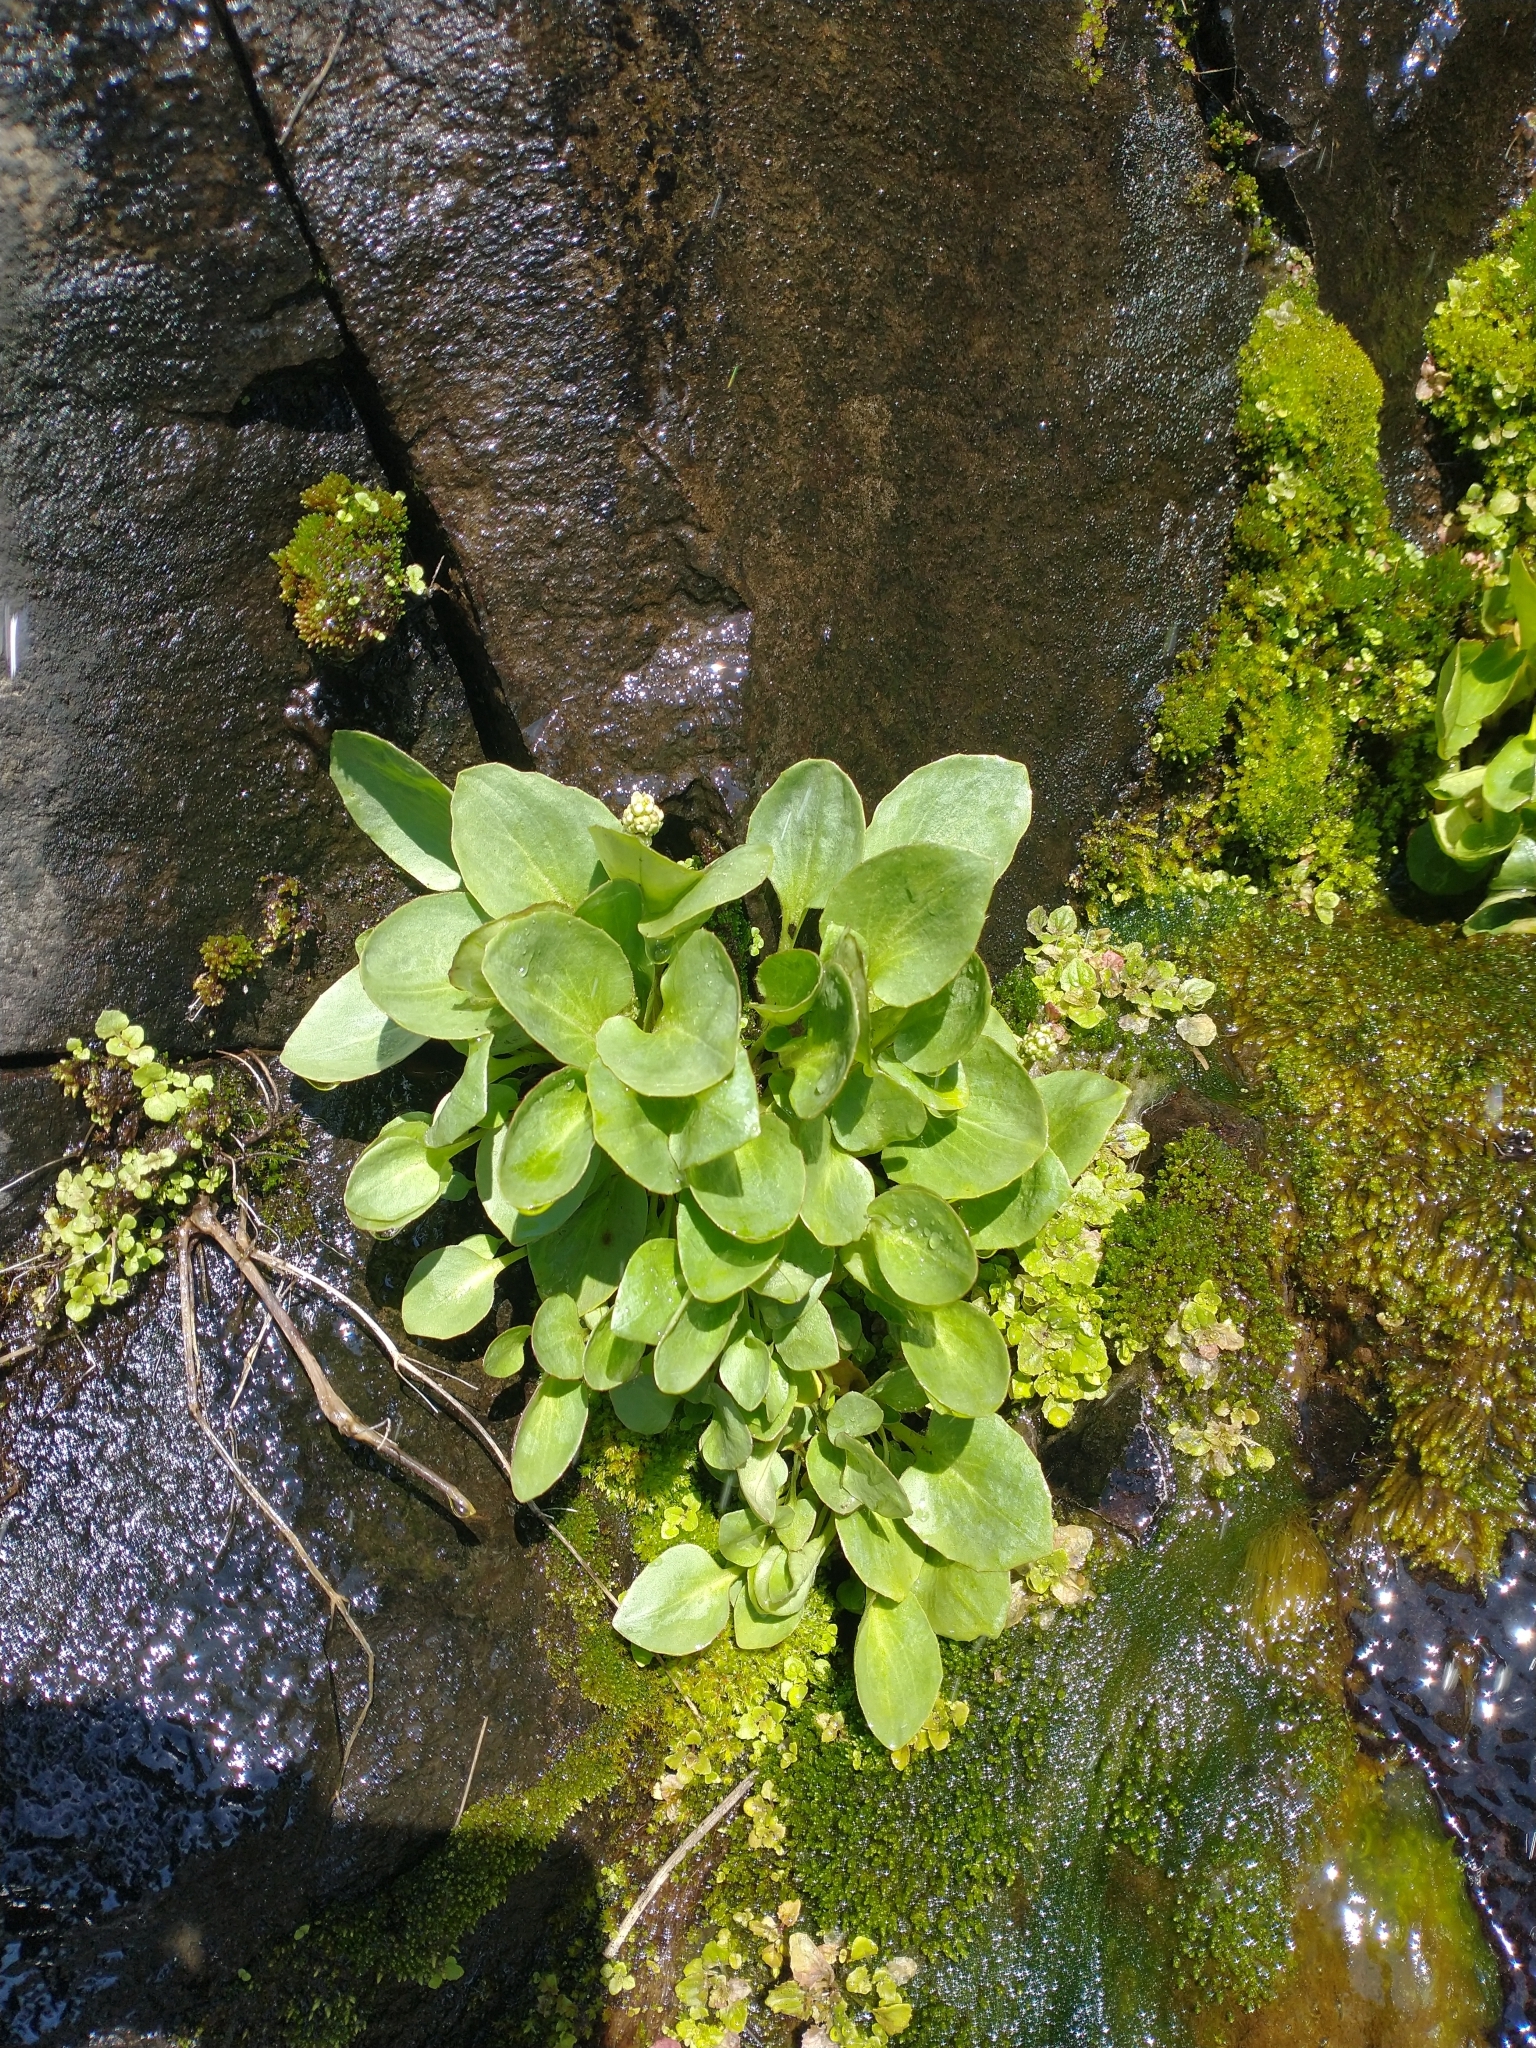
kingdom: Plantae
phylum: Tracheophyta
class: Magnoliopsida
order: Saxifragales
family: Saxifragaceae
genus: Micranthes
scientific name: Micranthes fragosa
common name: Peak saxifrage
